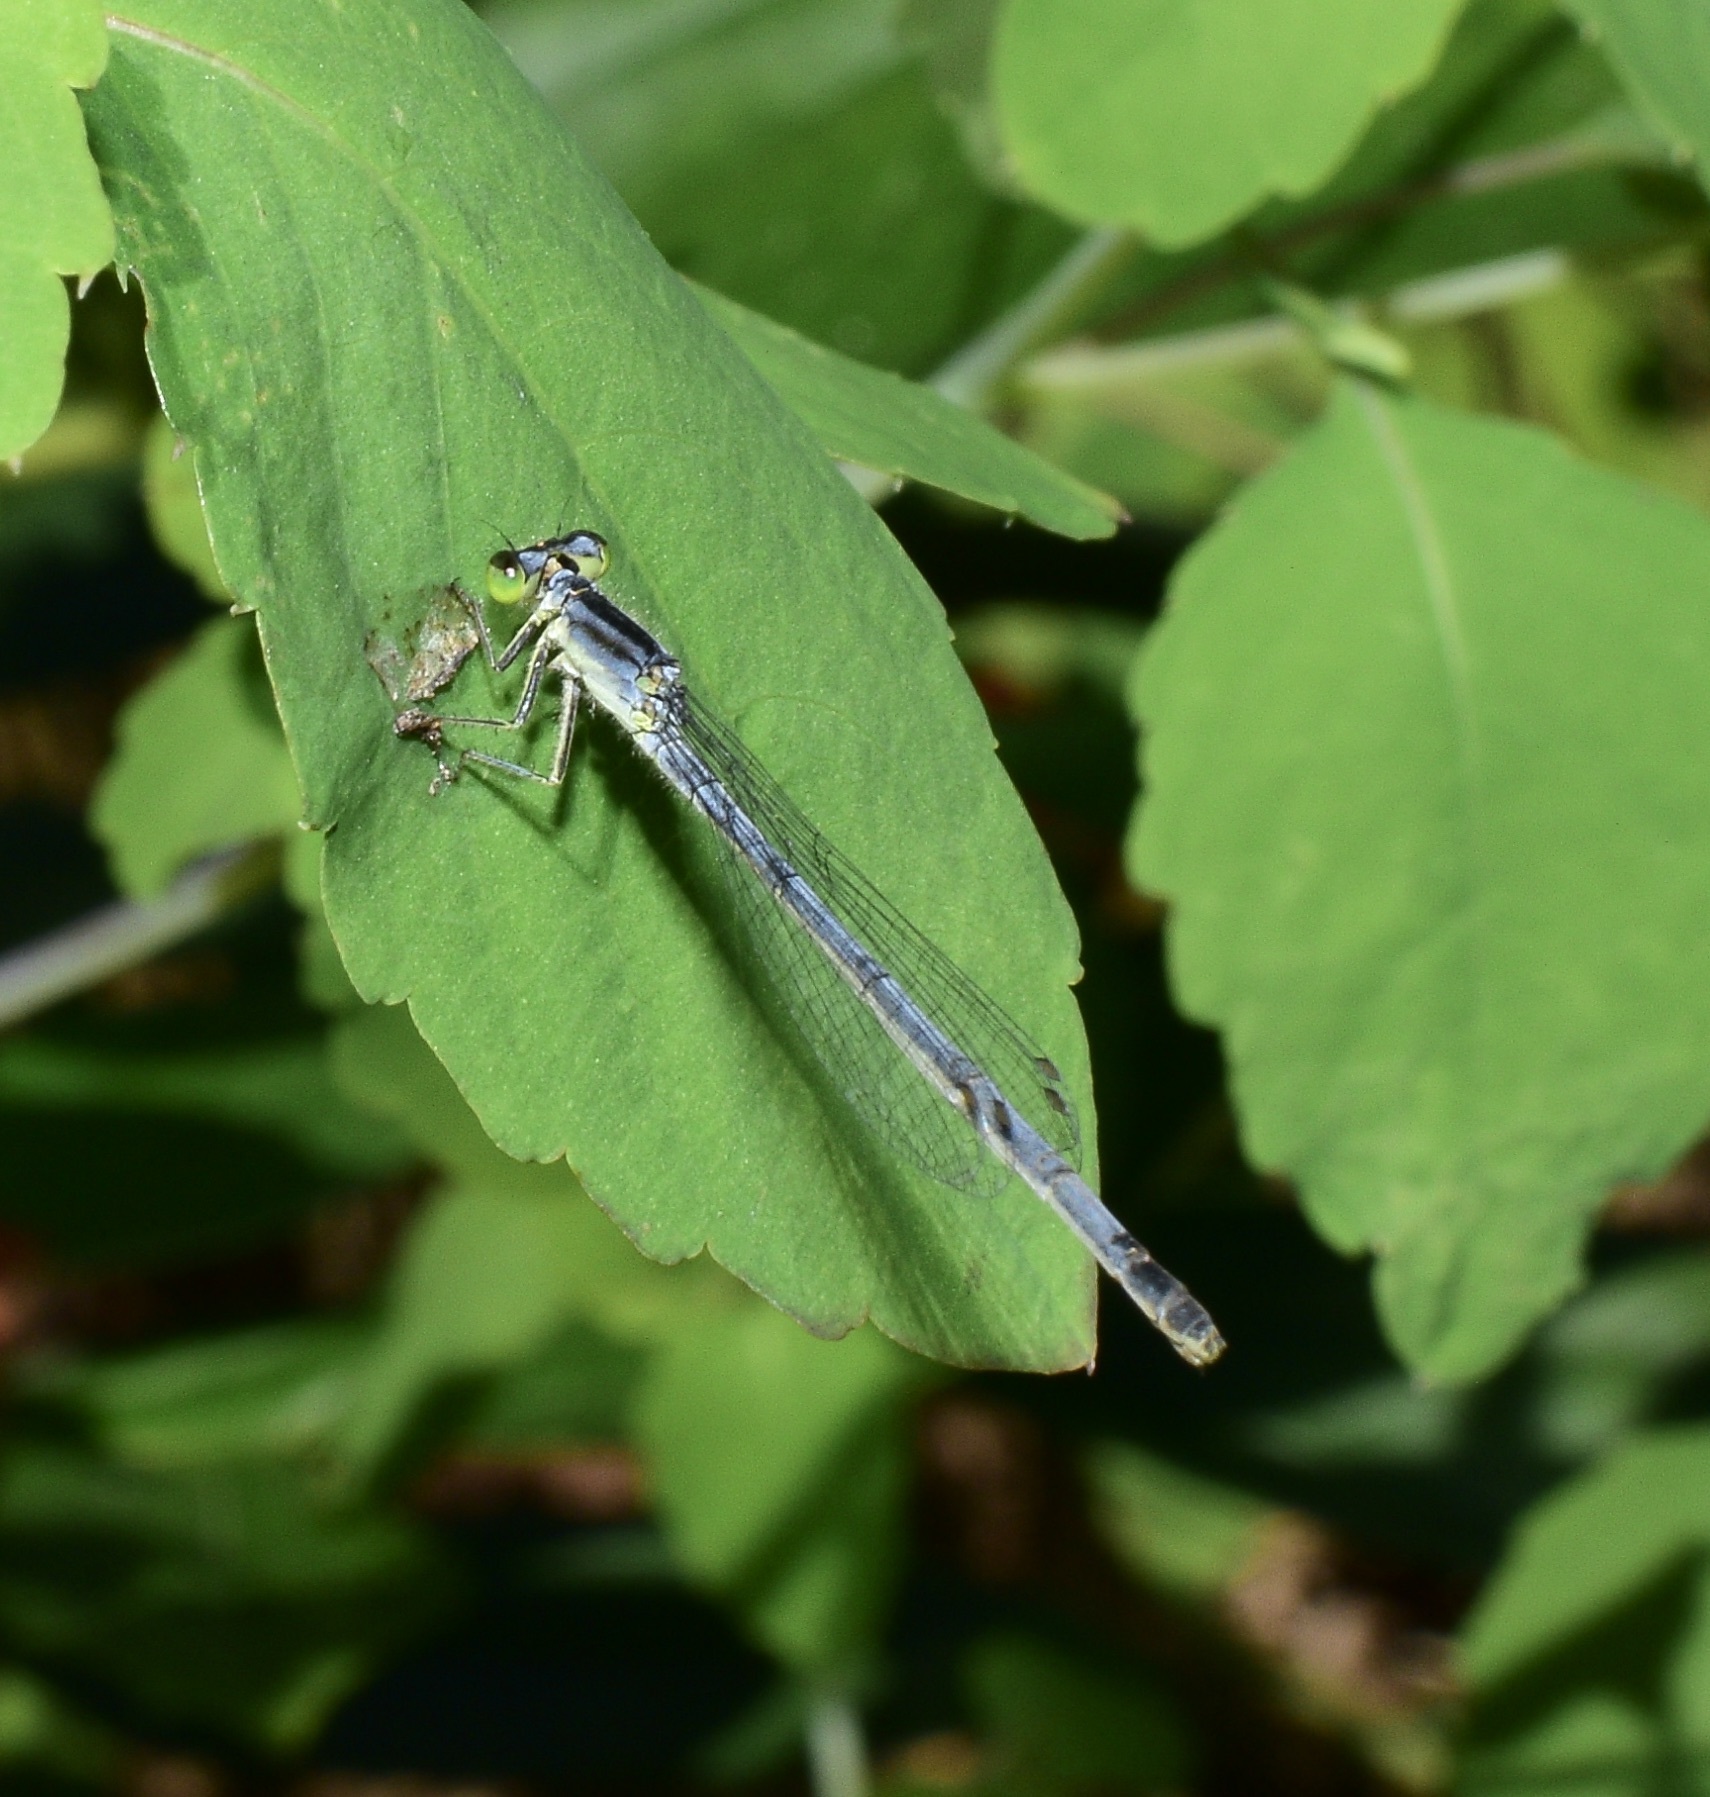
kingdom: Animalia
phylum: Arthropoda
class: Insecta
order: Odonata
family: Coenagrionidae
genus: Ischnura
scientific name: Ischnura verticalis
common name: Eastern forktail
